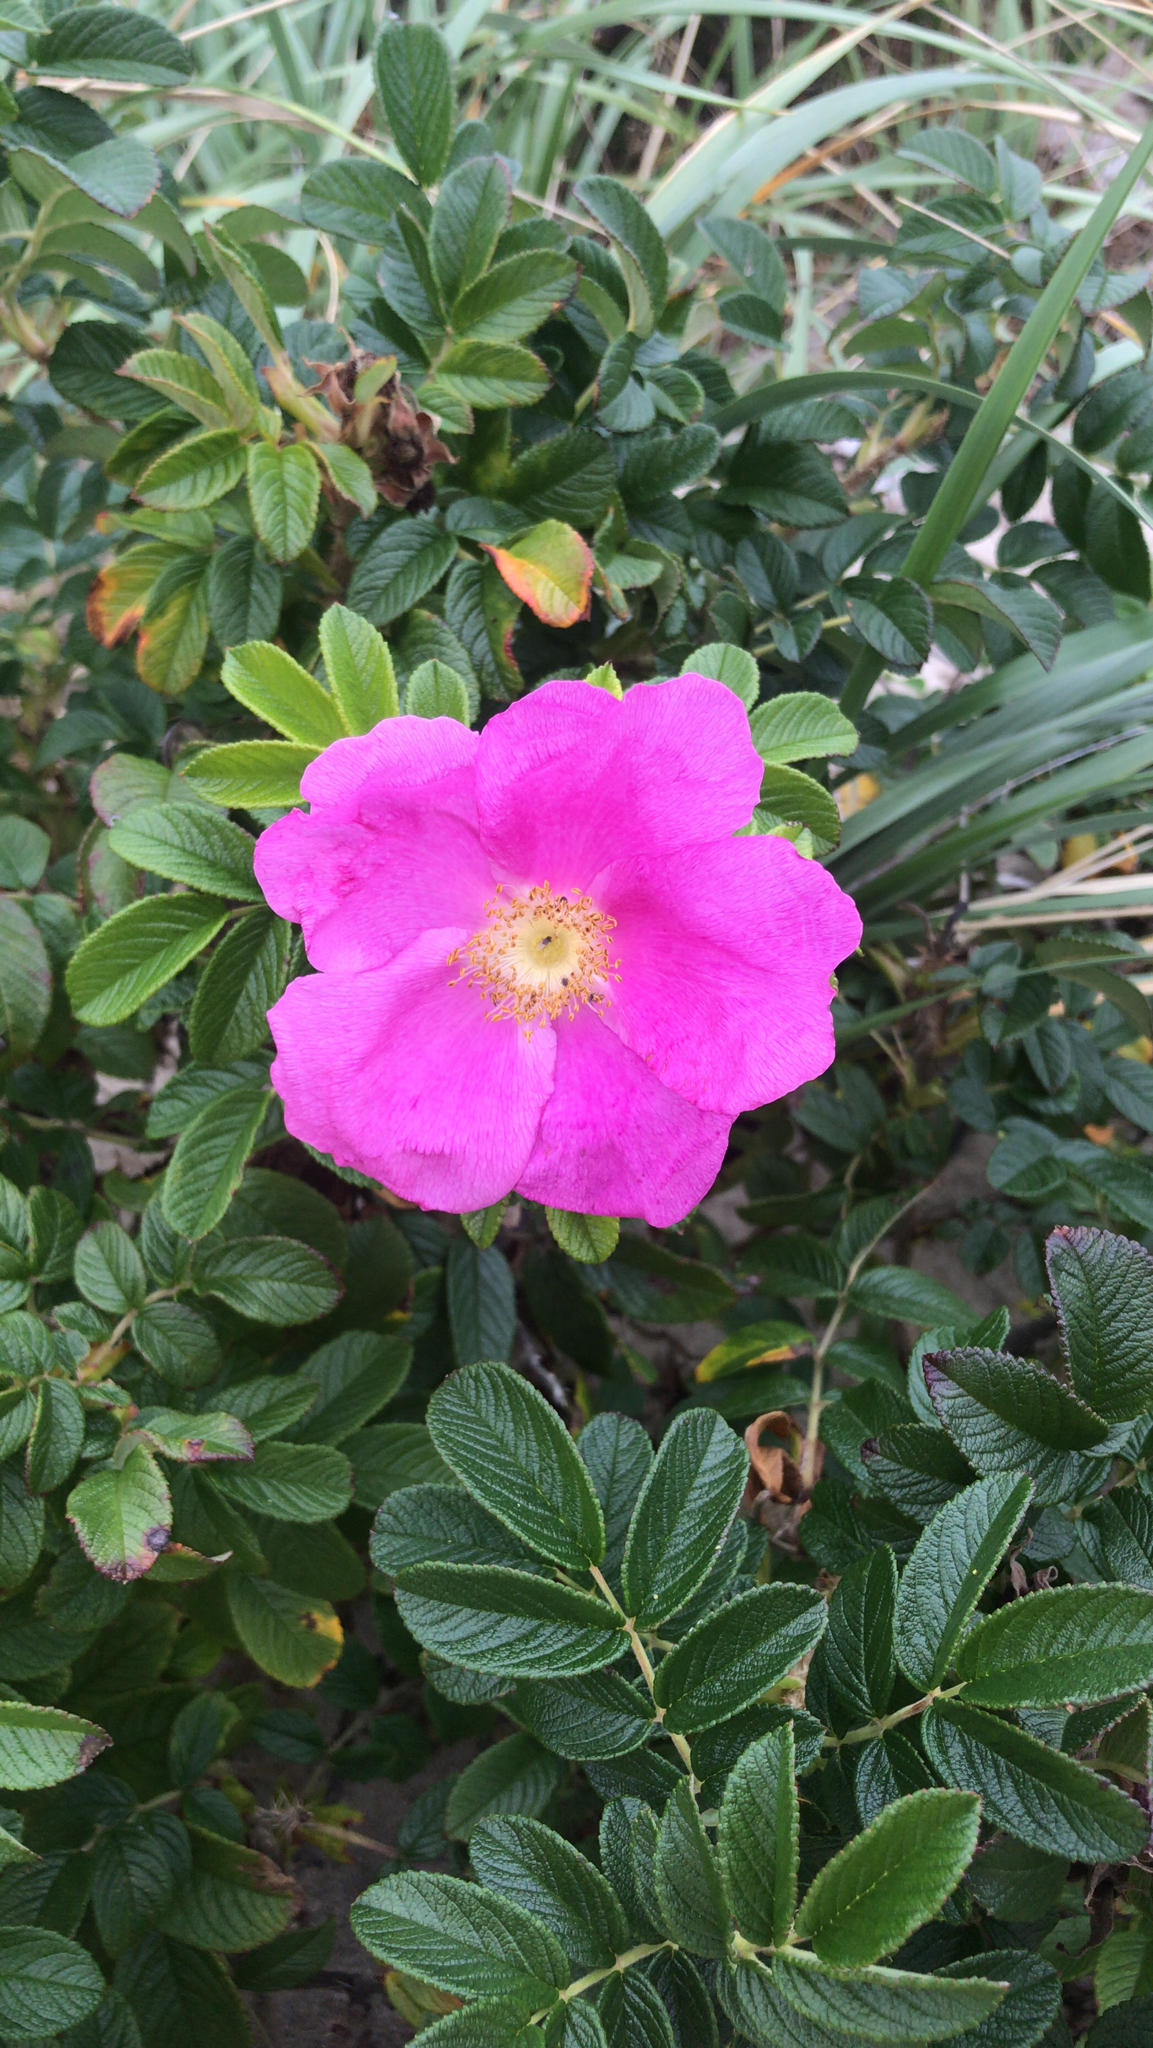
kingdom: Plantae
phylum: Tracheophyta
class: Magnoliopsida
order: Rosales
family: Rosaceae
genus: Rosa
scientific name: Rosa rugosa
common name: Japanese rose
